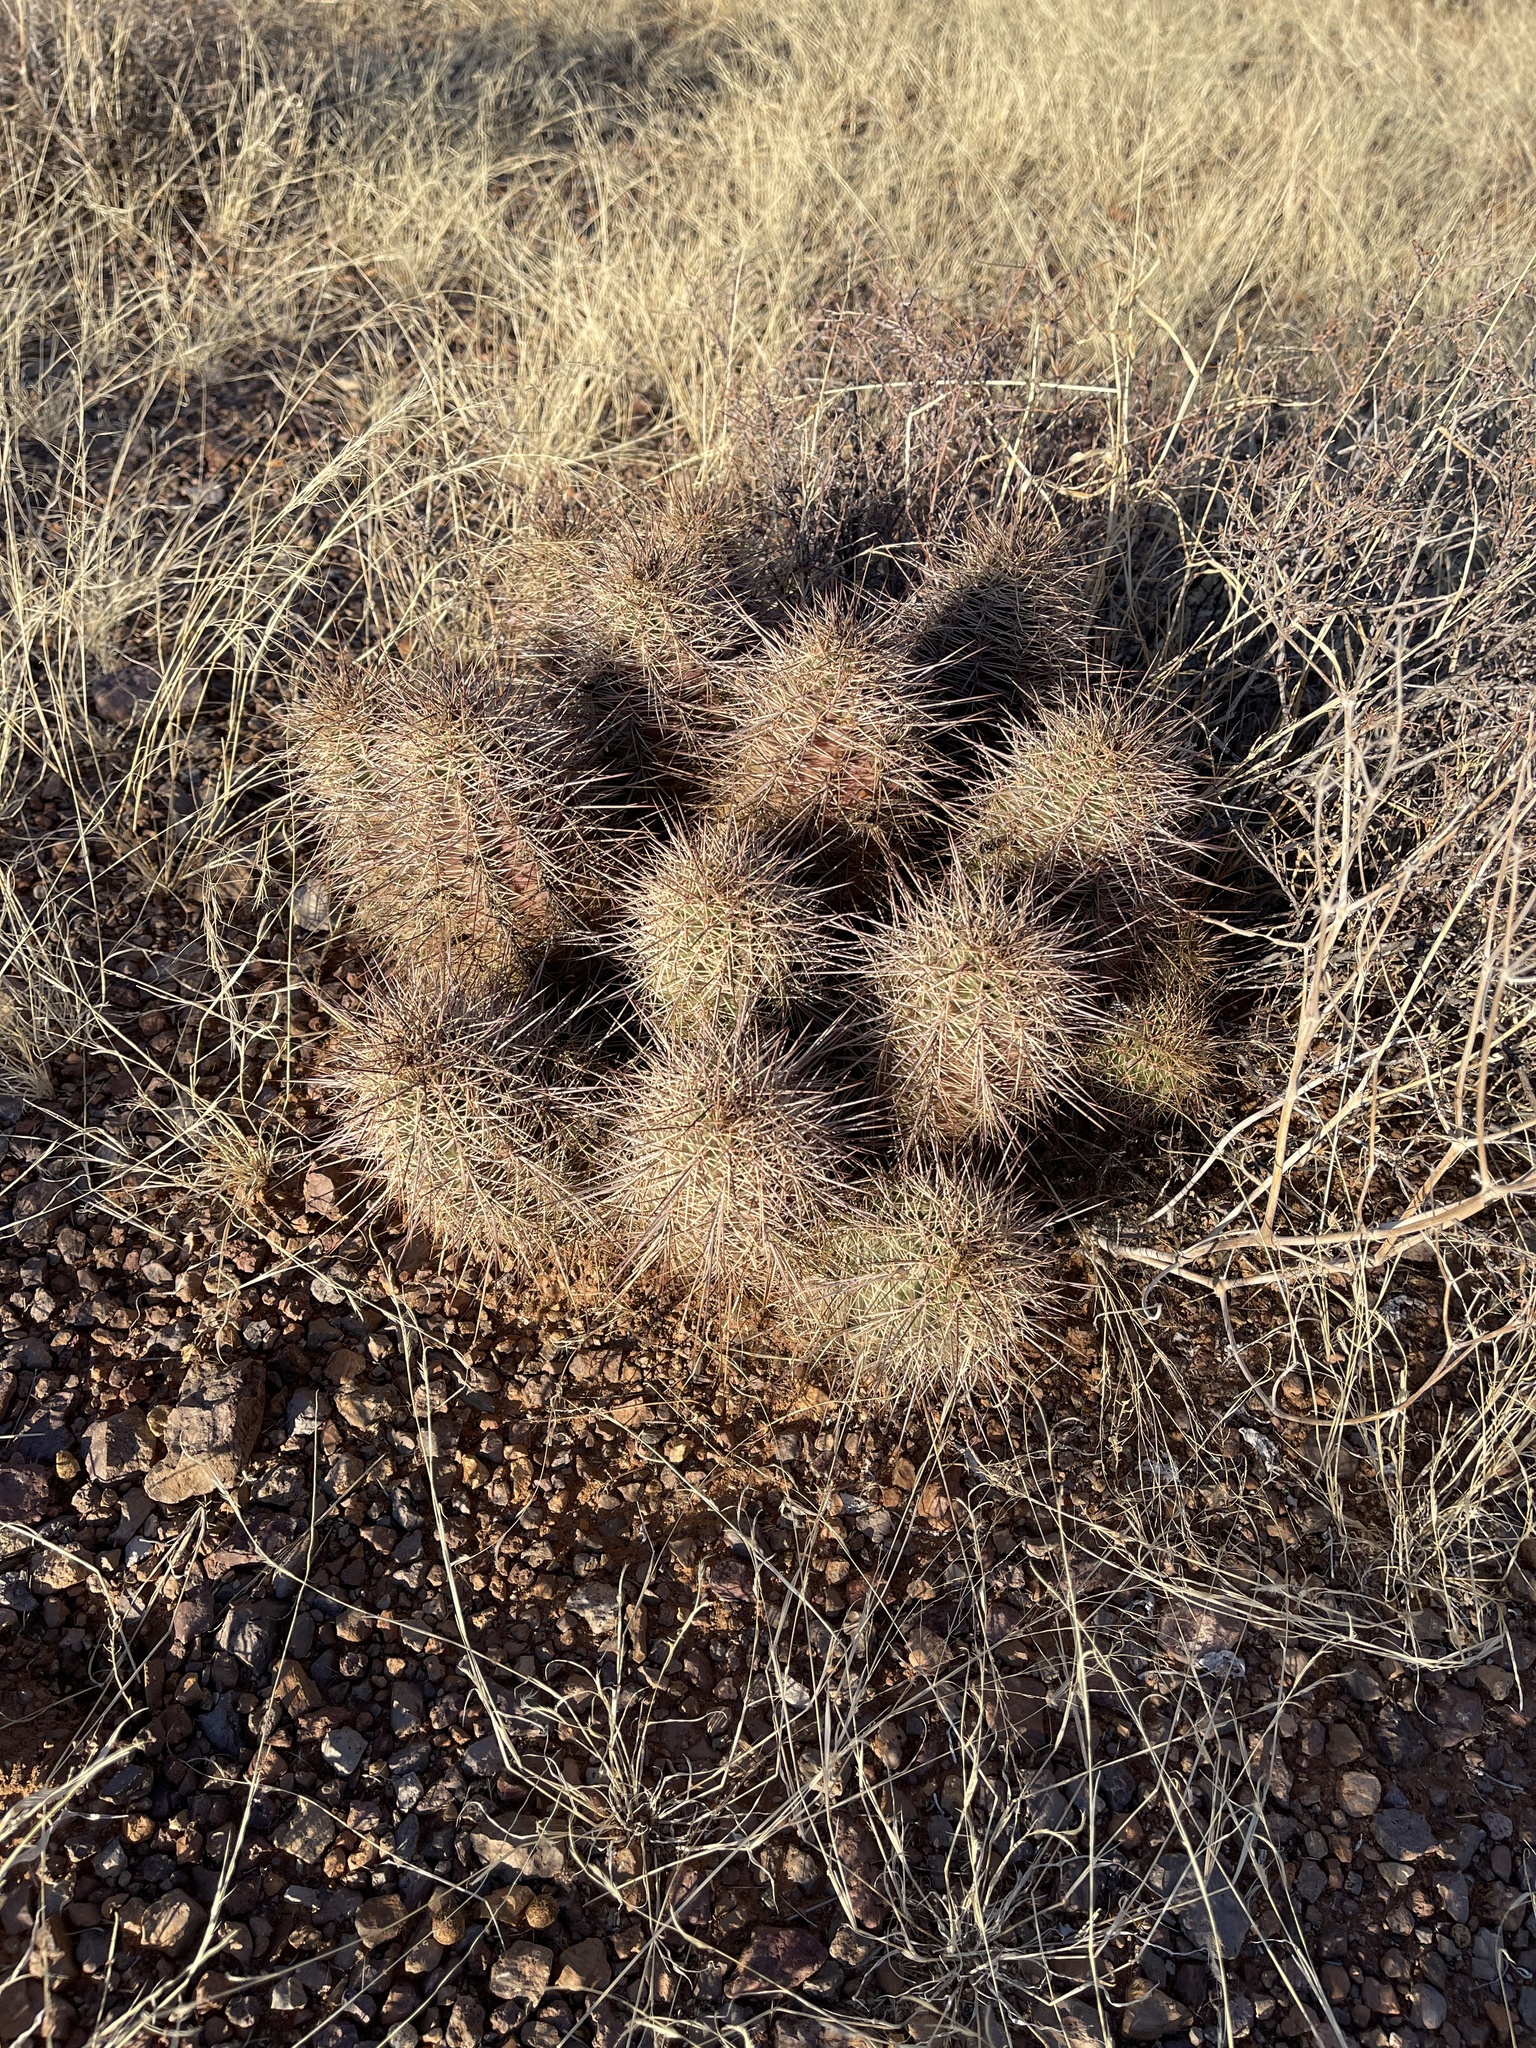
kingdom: Plantae
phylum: Tracheophyta
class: Magnoliopsida
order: Caryophyllales
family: Cactaceae
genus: Echinocereus
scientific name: Echinocereus coccineus
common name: Scarlet hedgehog cactus
